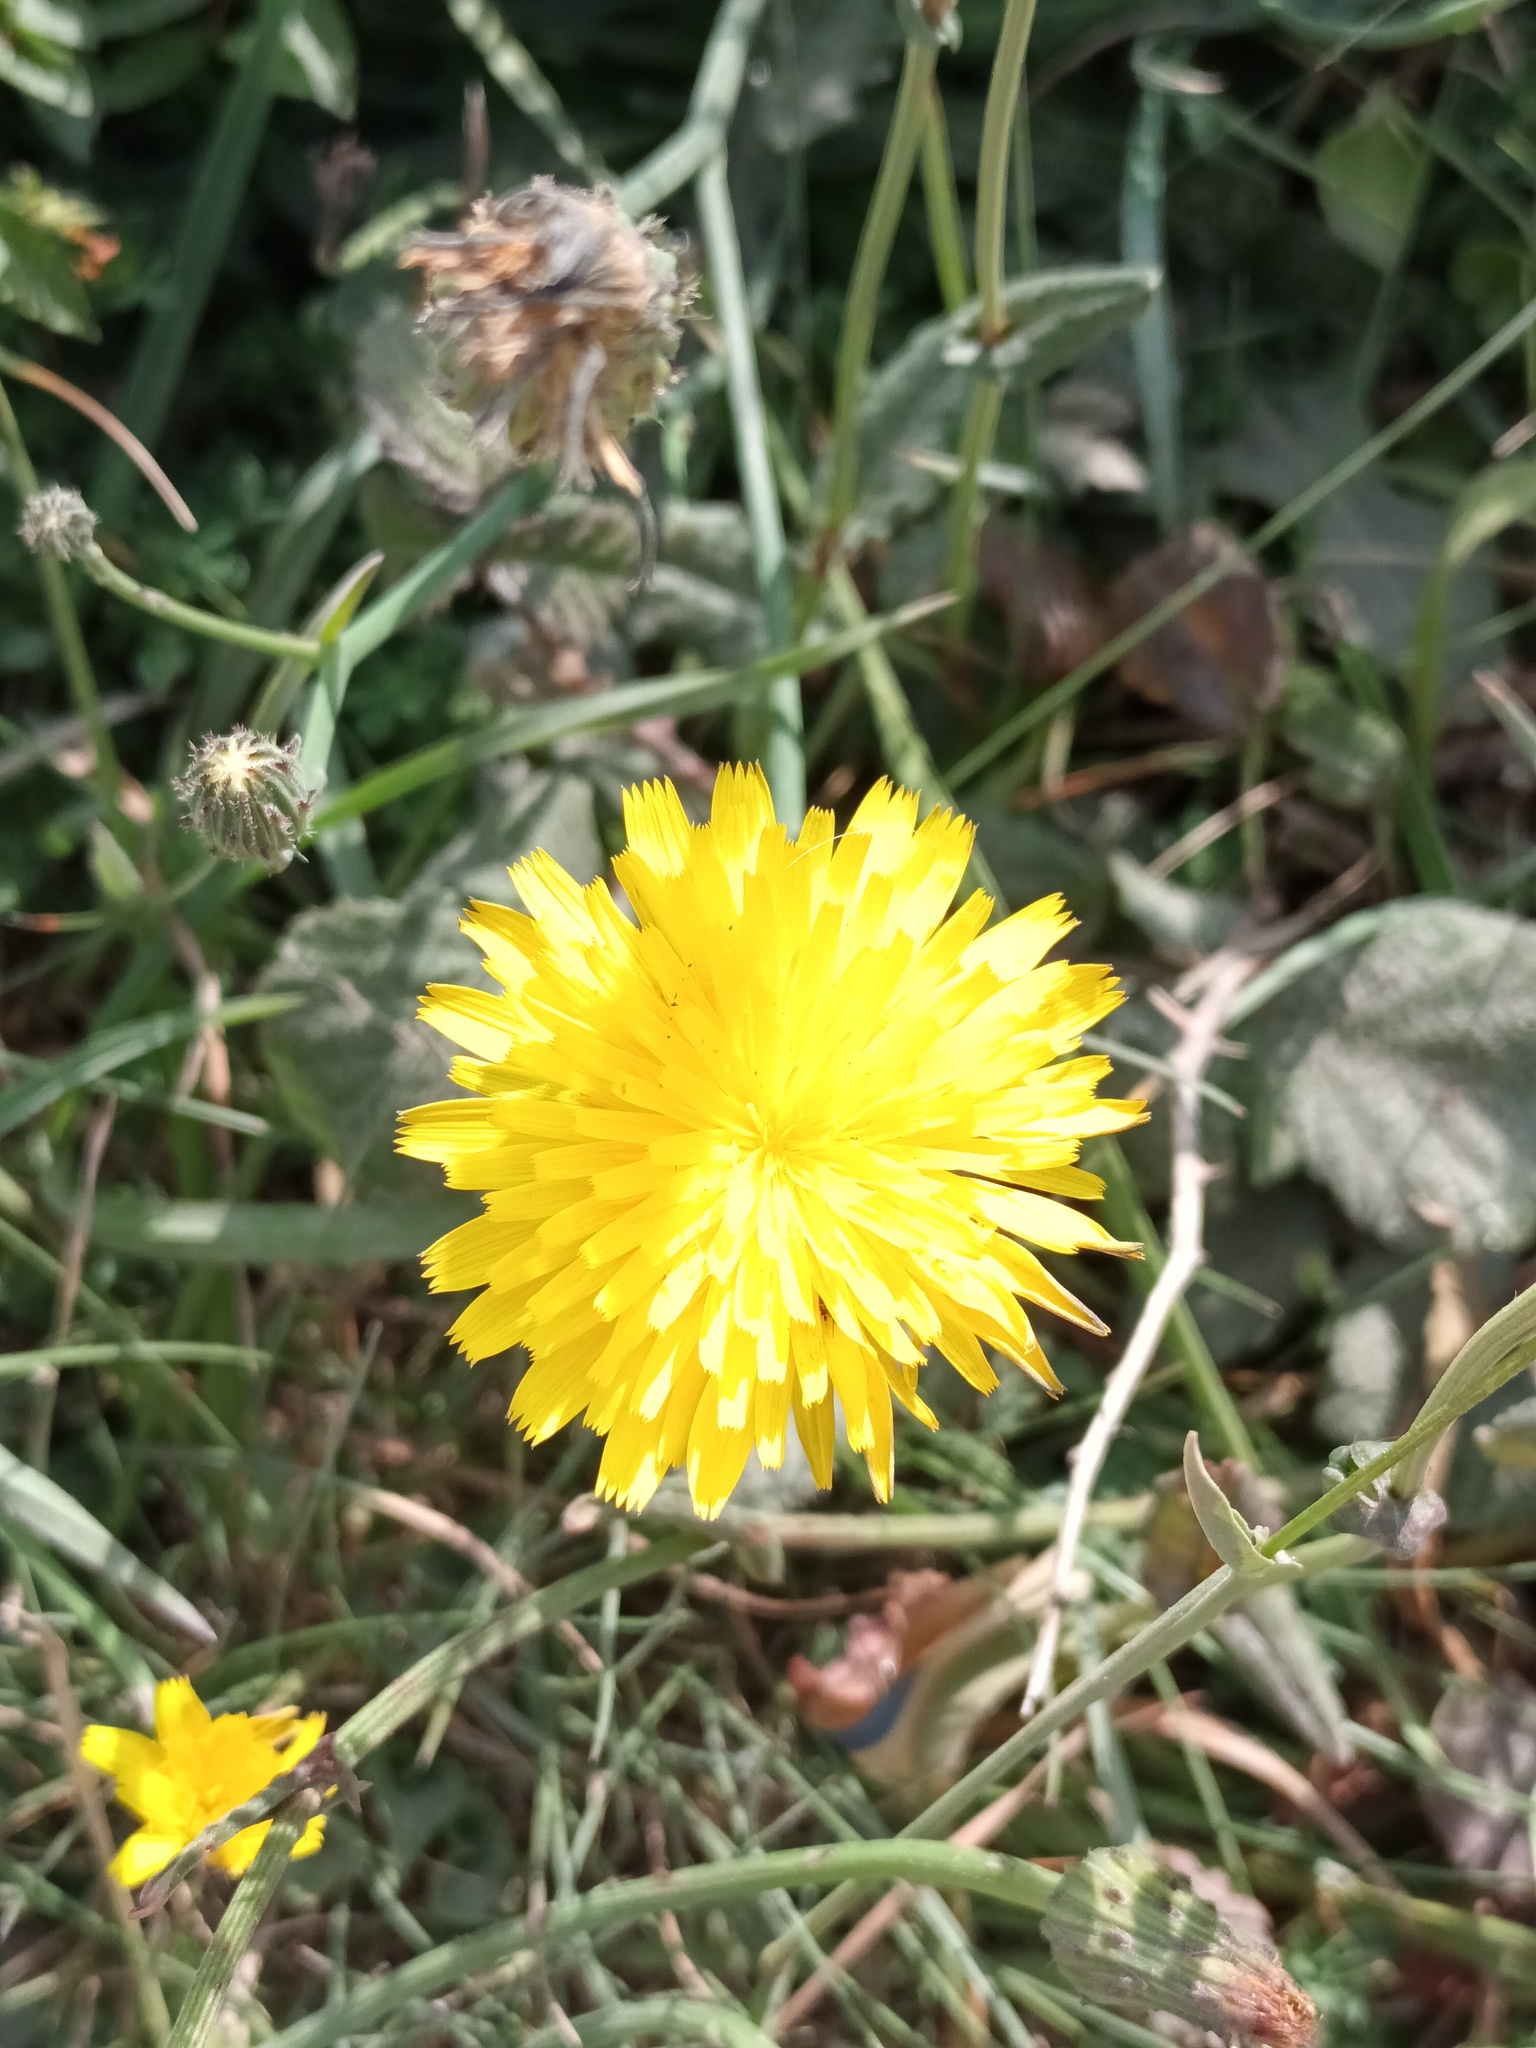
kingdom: Plantae
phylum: Tracheophyta
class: Magnoliopsida
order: Asterales
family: Asteraceae
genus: Hypochaeris
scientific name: Hypochaeris radicata
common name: Flatweed
